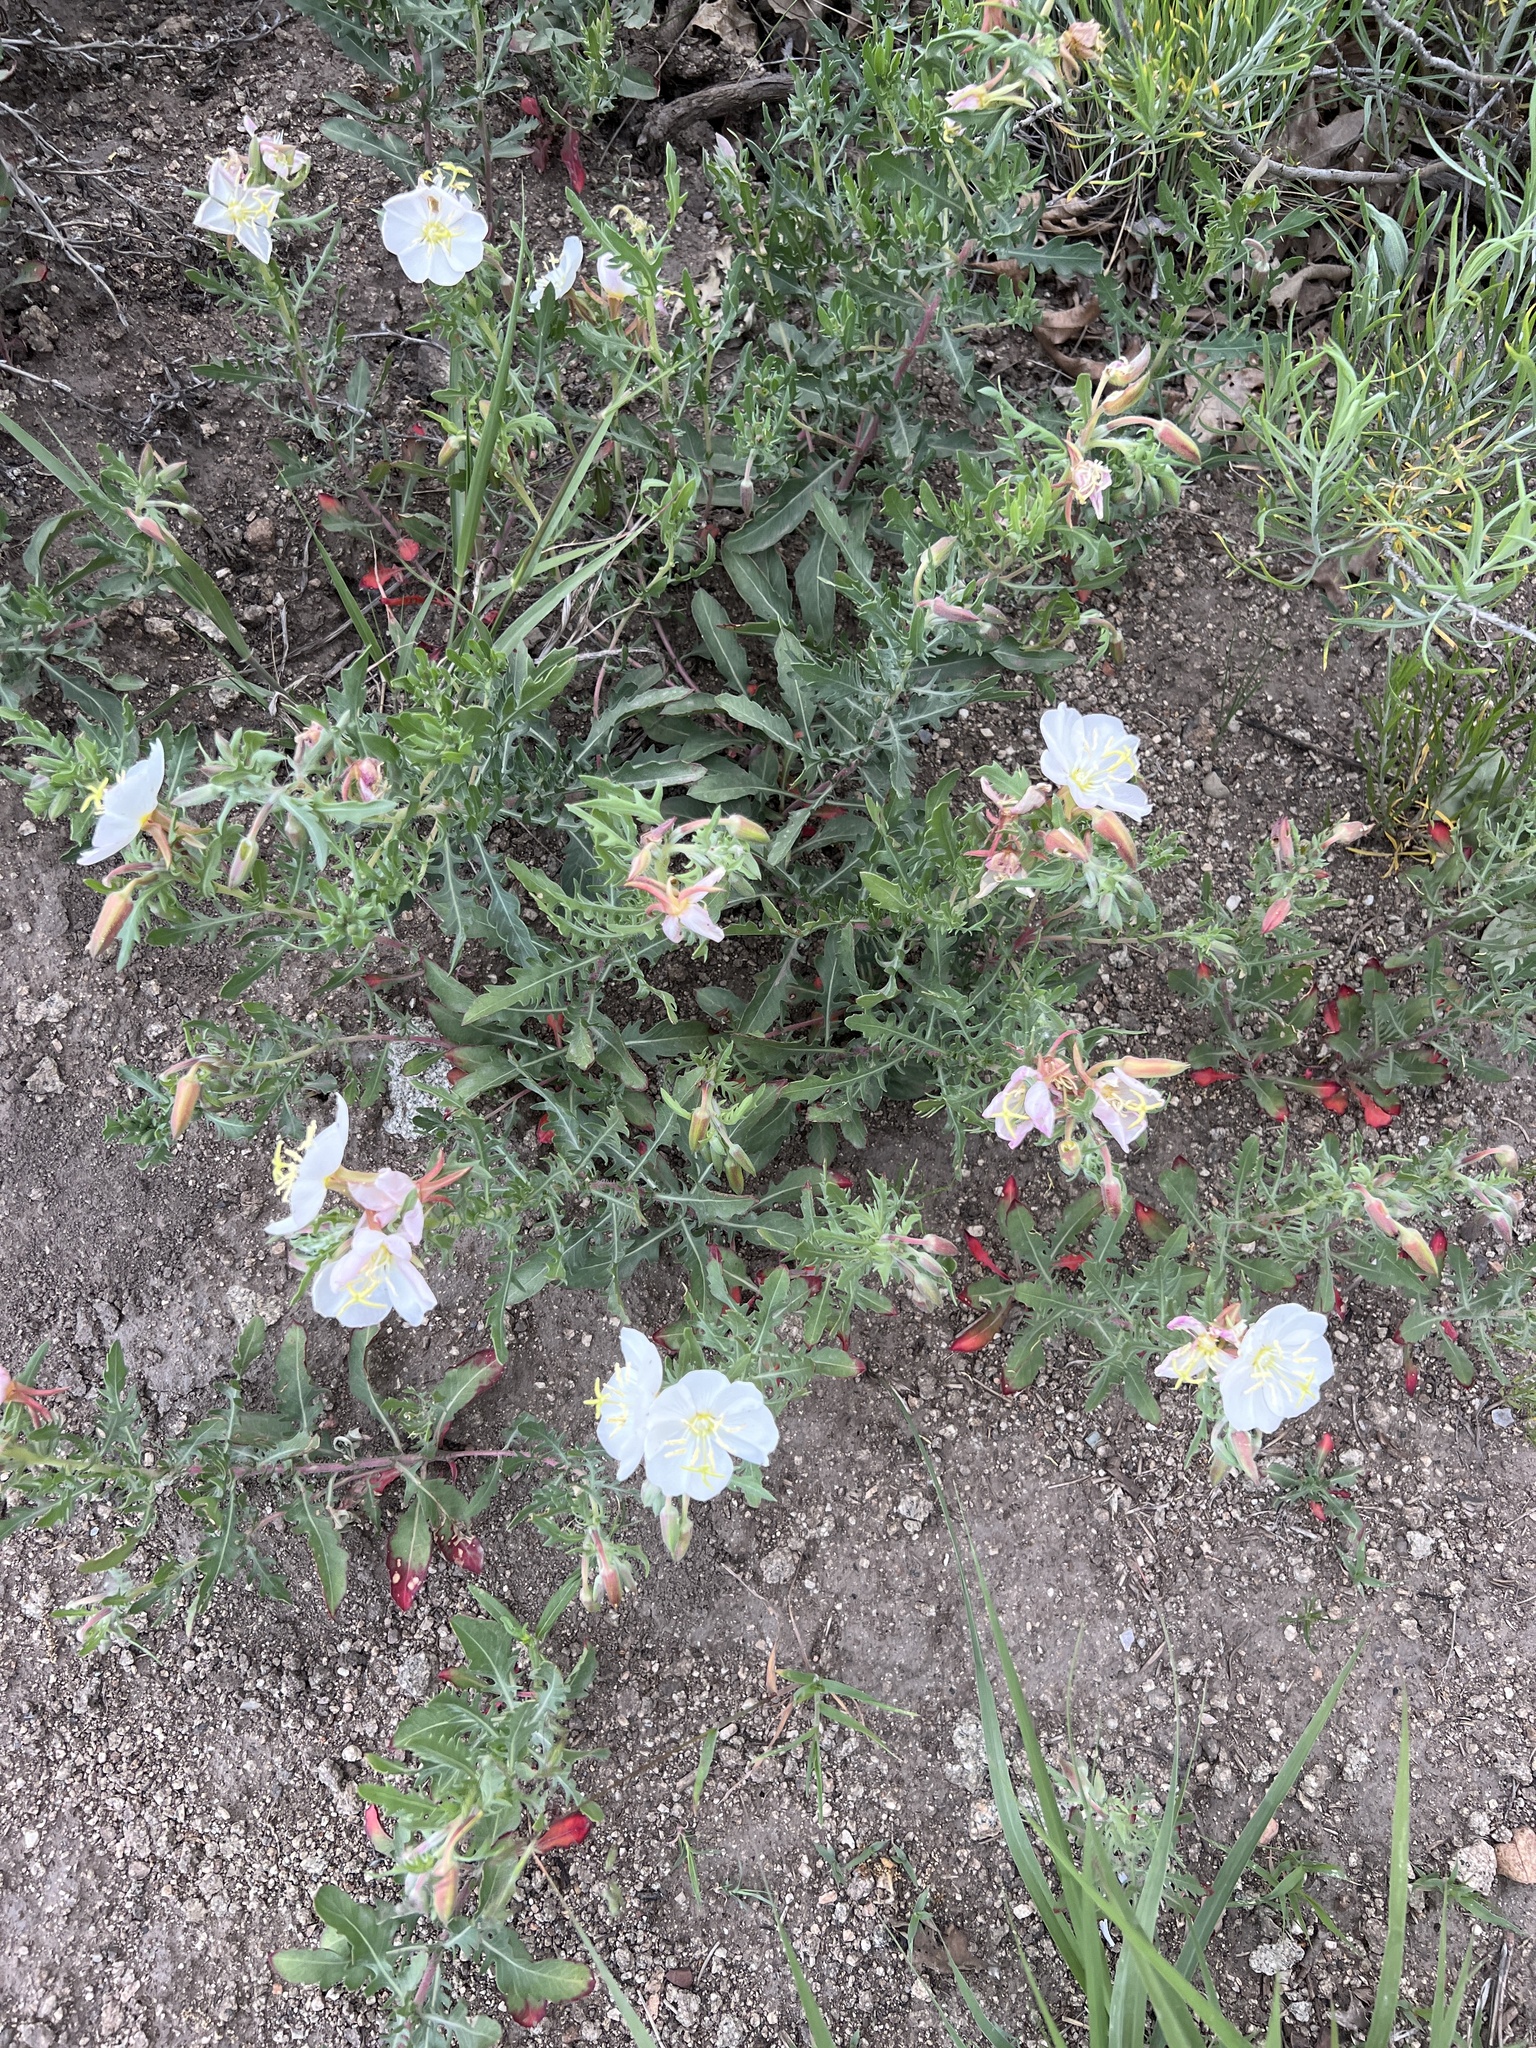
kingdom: Plantae
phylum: Tracheophyta
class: Magnoliopsida
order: Myrtales
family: Onagraceae
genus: Oenothera
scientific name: Oenothera pallida
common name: Pale evening-primrose
